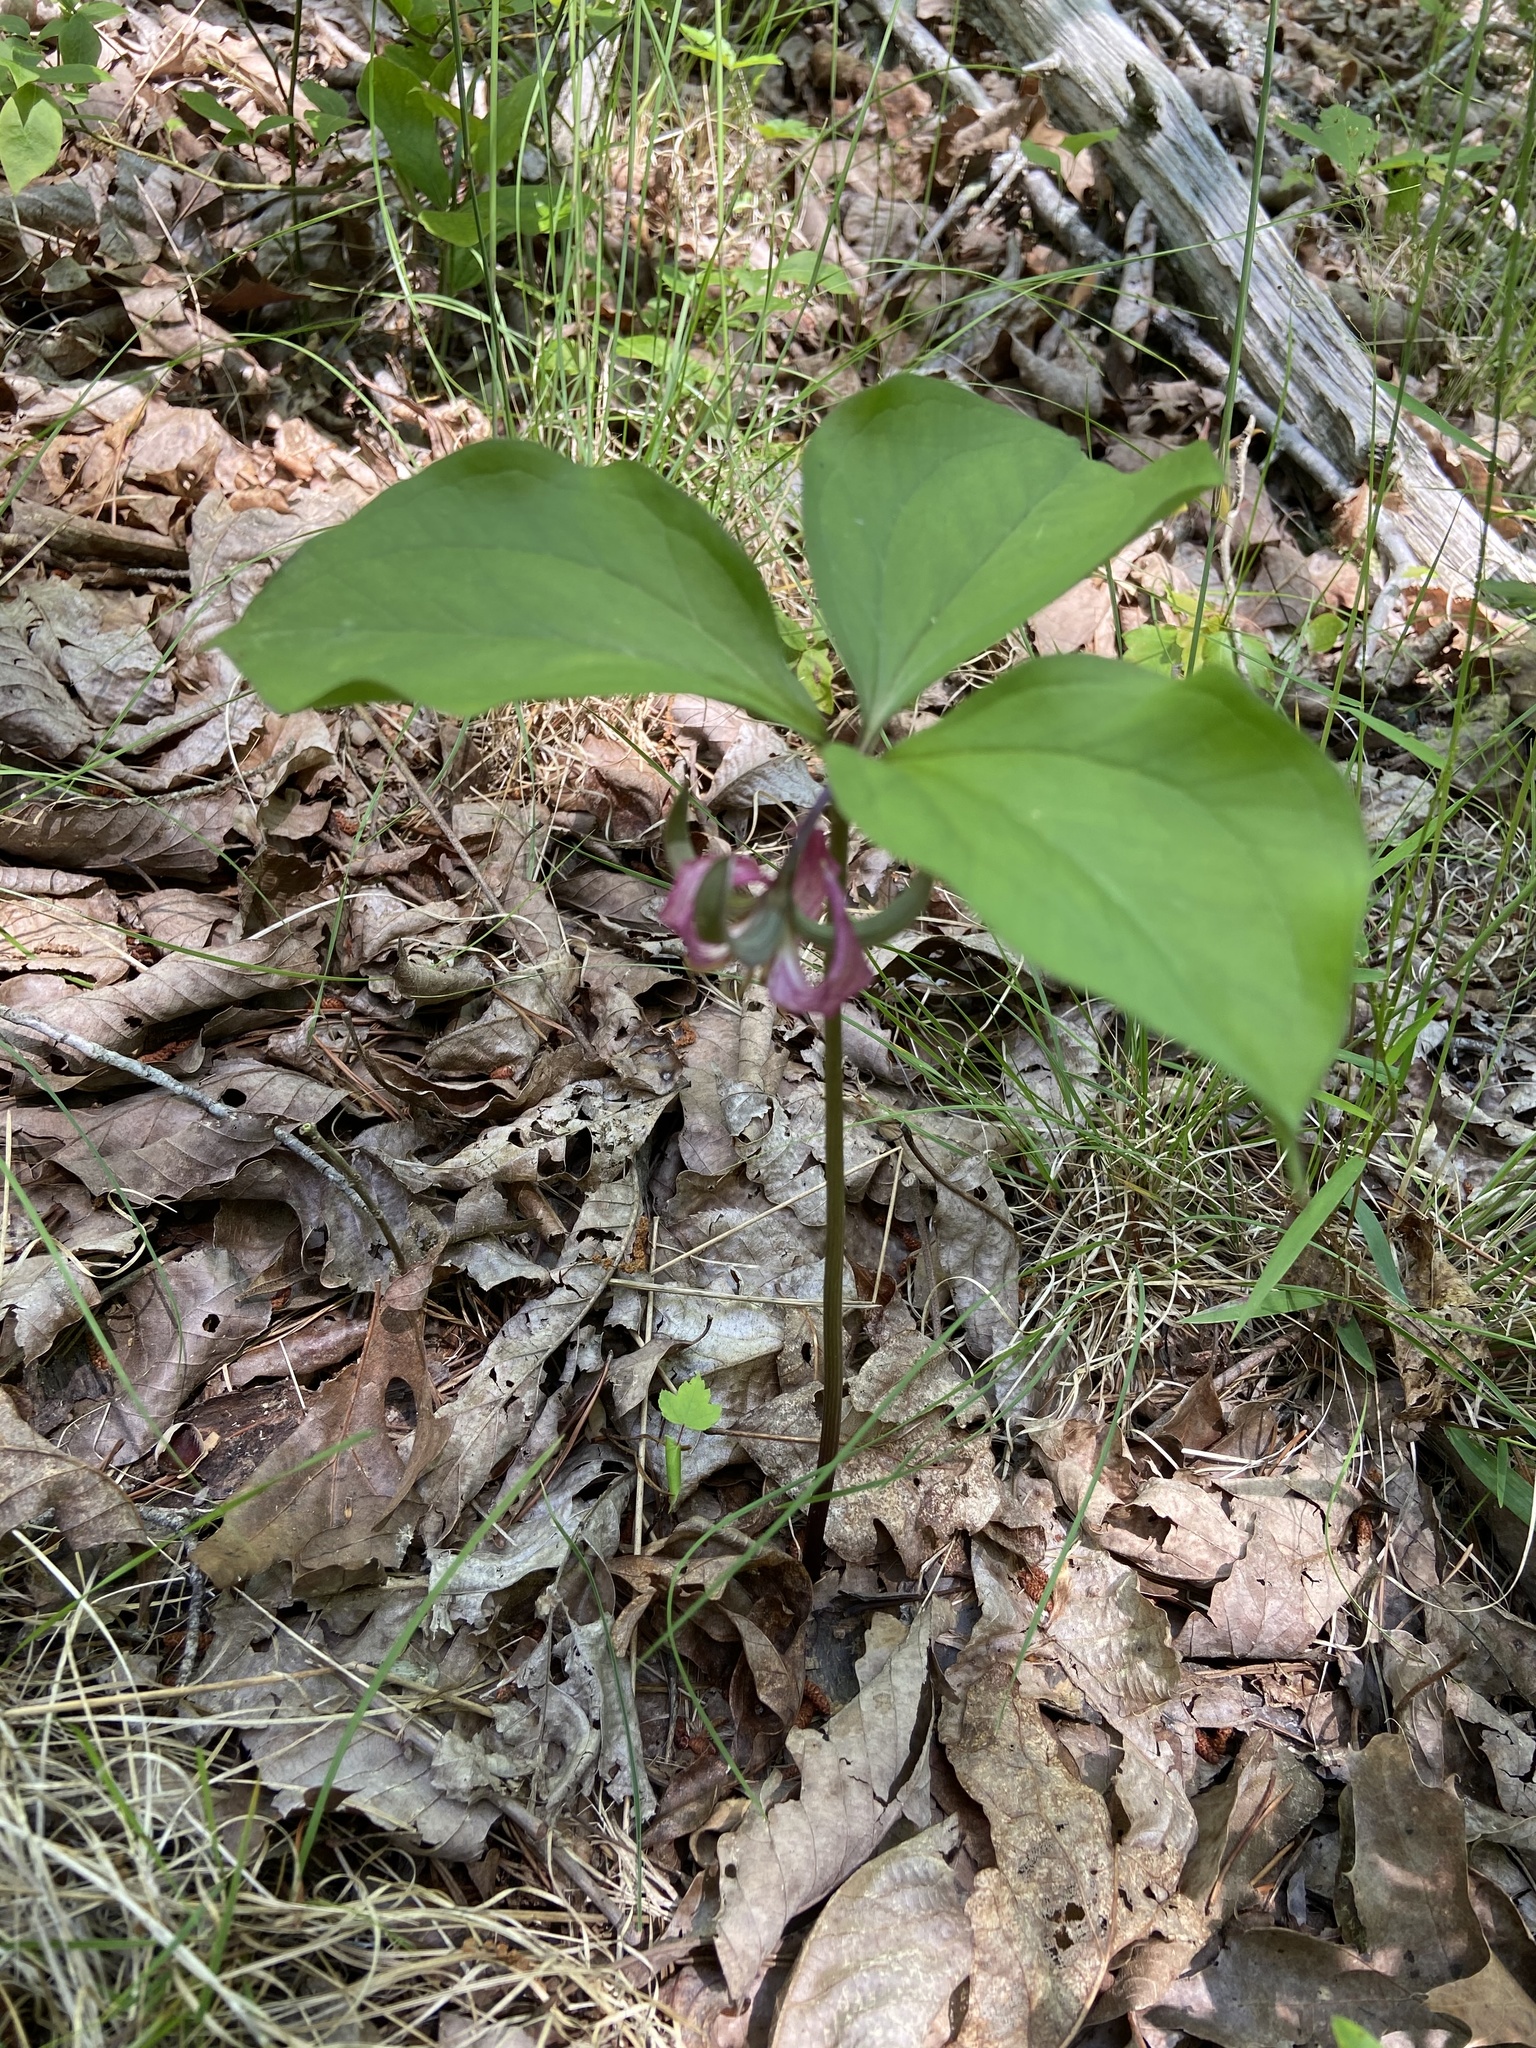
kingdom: Plantae
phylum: Tracheophyta
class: Liliopsida
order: Liliales
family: Melanthiaceae
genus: Trillium
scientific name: Trillium catesbaei
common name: Bashful trillium
